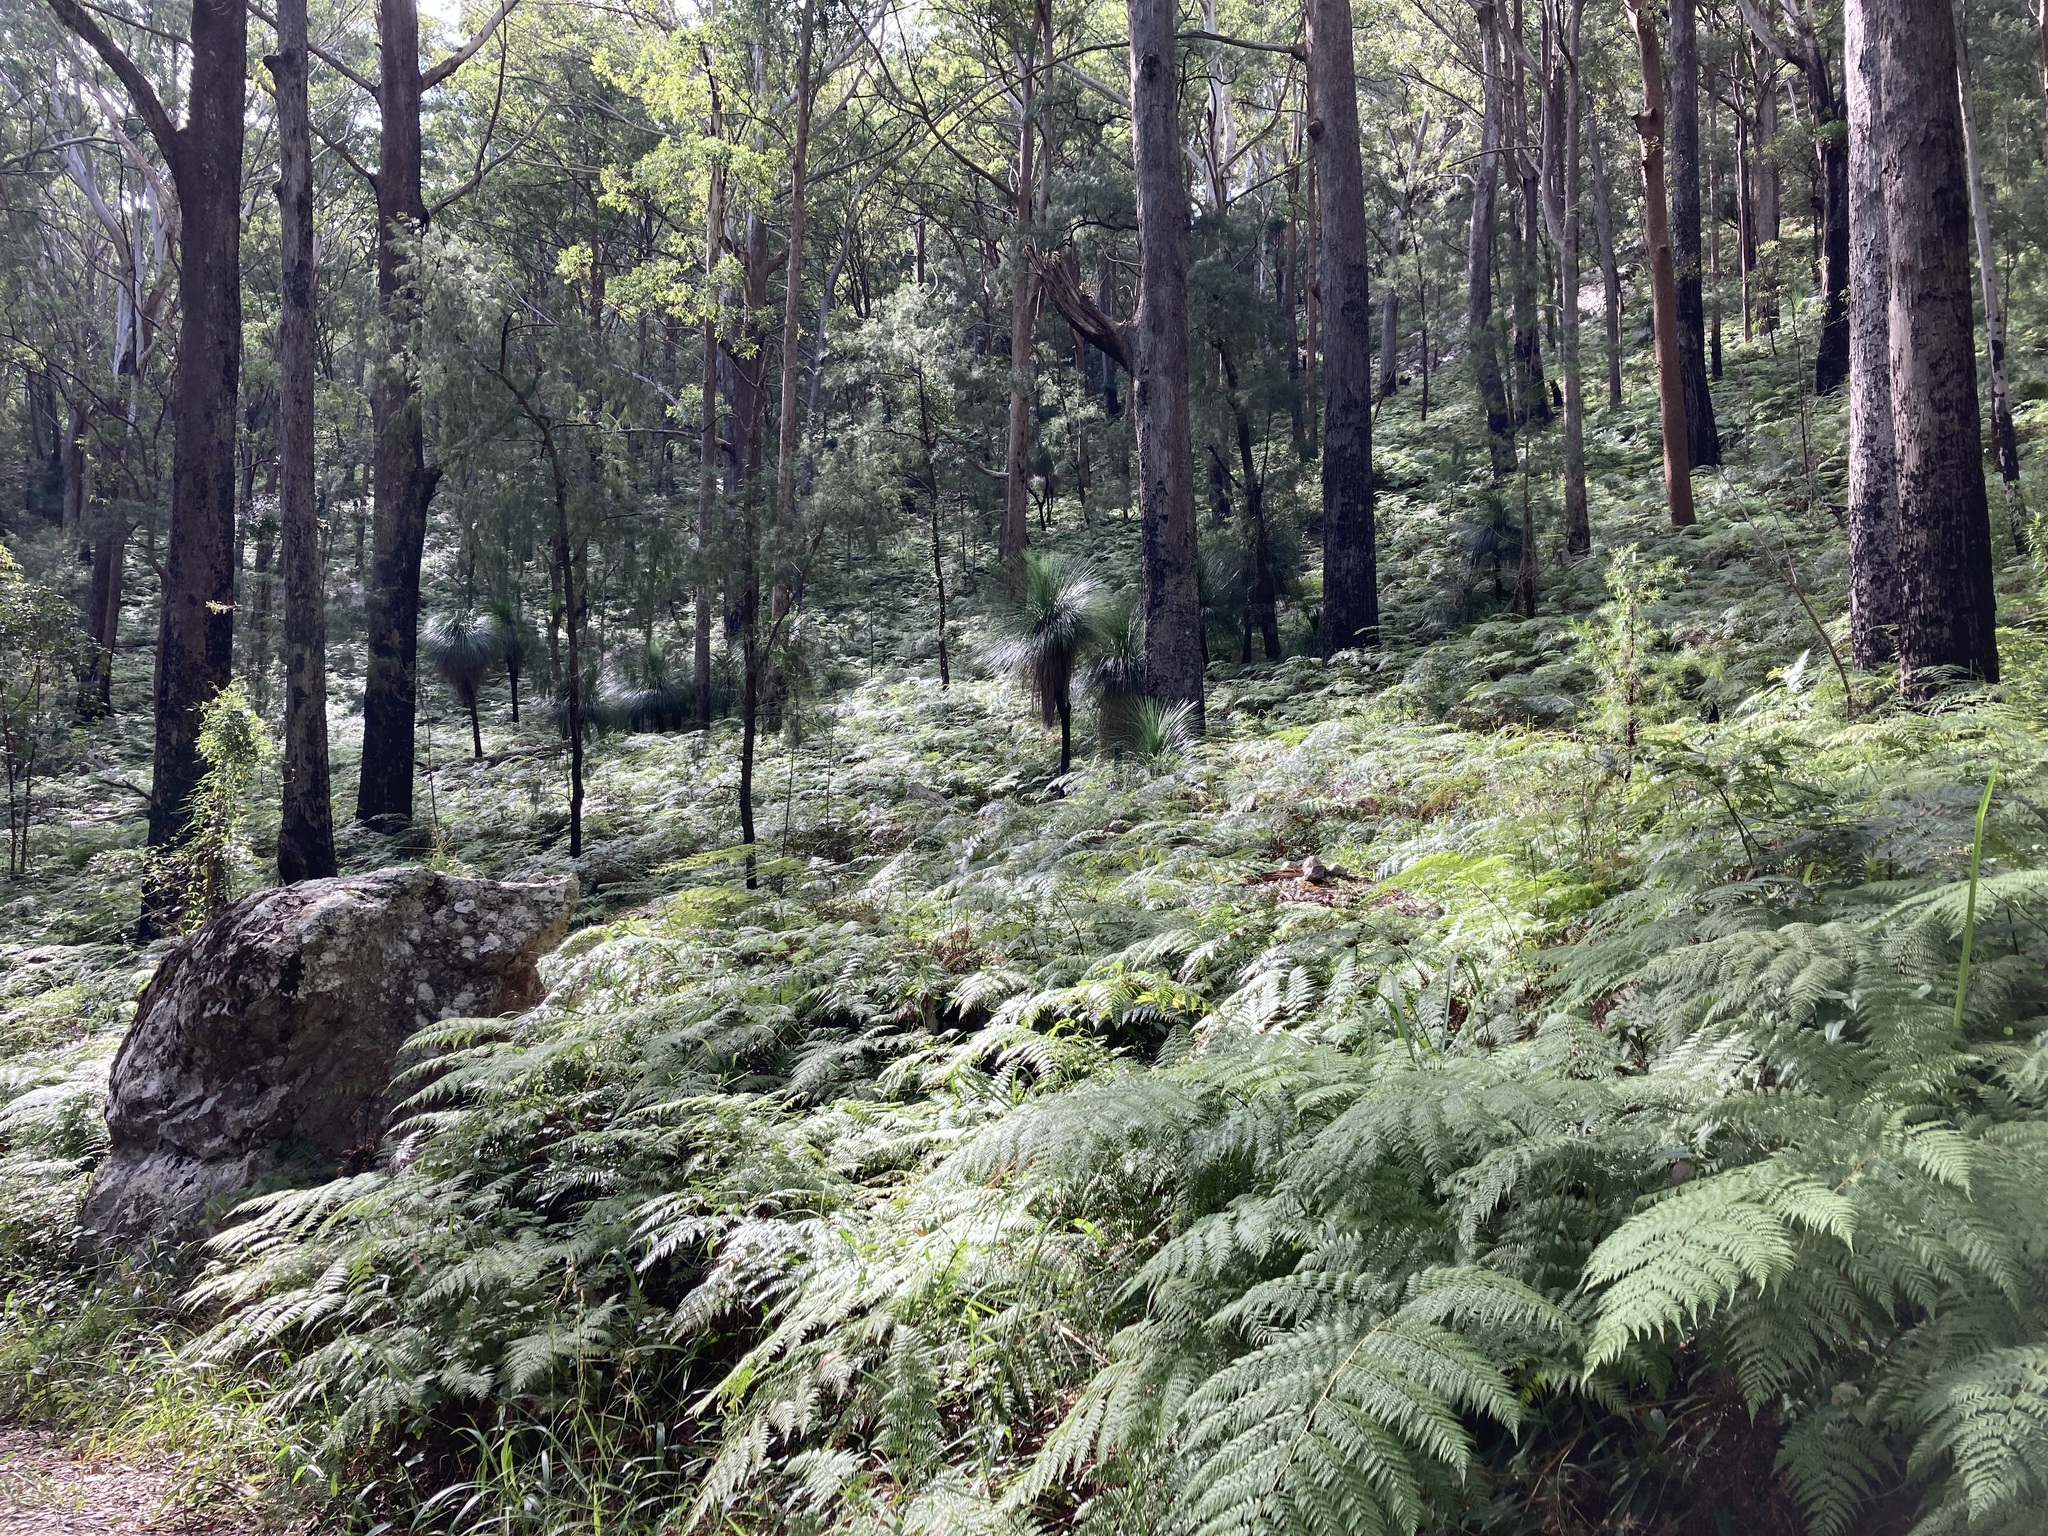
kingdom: Plantae
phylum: Tracheophyta
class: Liliopsida
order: Asparagales
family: Asphodelaceae
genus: Xanthorrhoea
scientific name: Xanthorrhoea malacophylla
